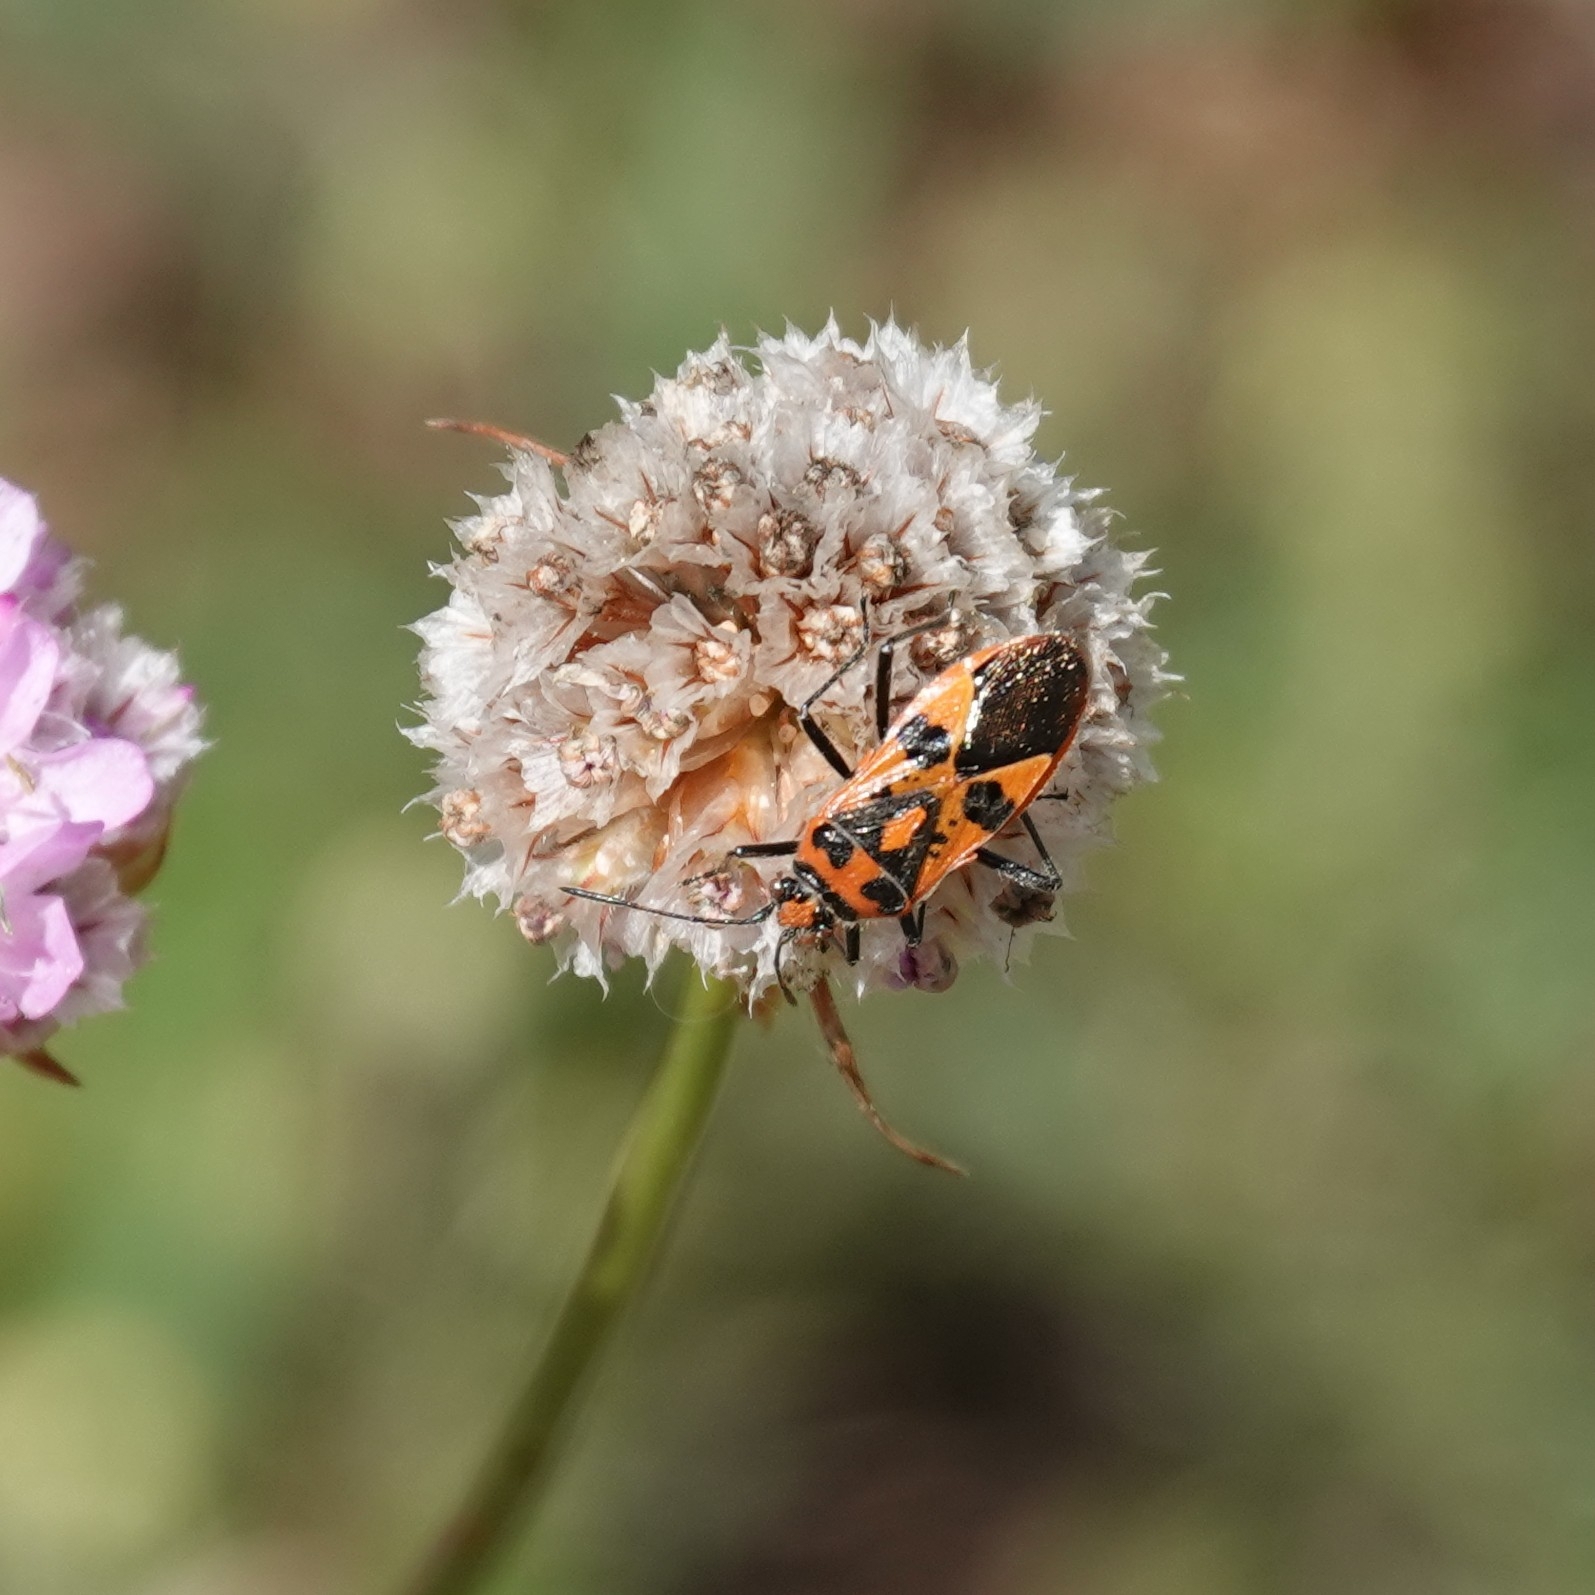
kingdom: Animalia
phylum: Arthropoda
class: Insecta
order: Hemiptera
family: Rhopalidae
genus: Corizus
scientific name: Corizus hyoscyami
